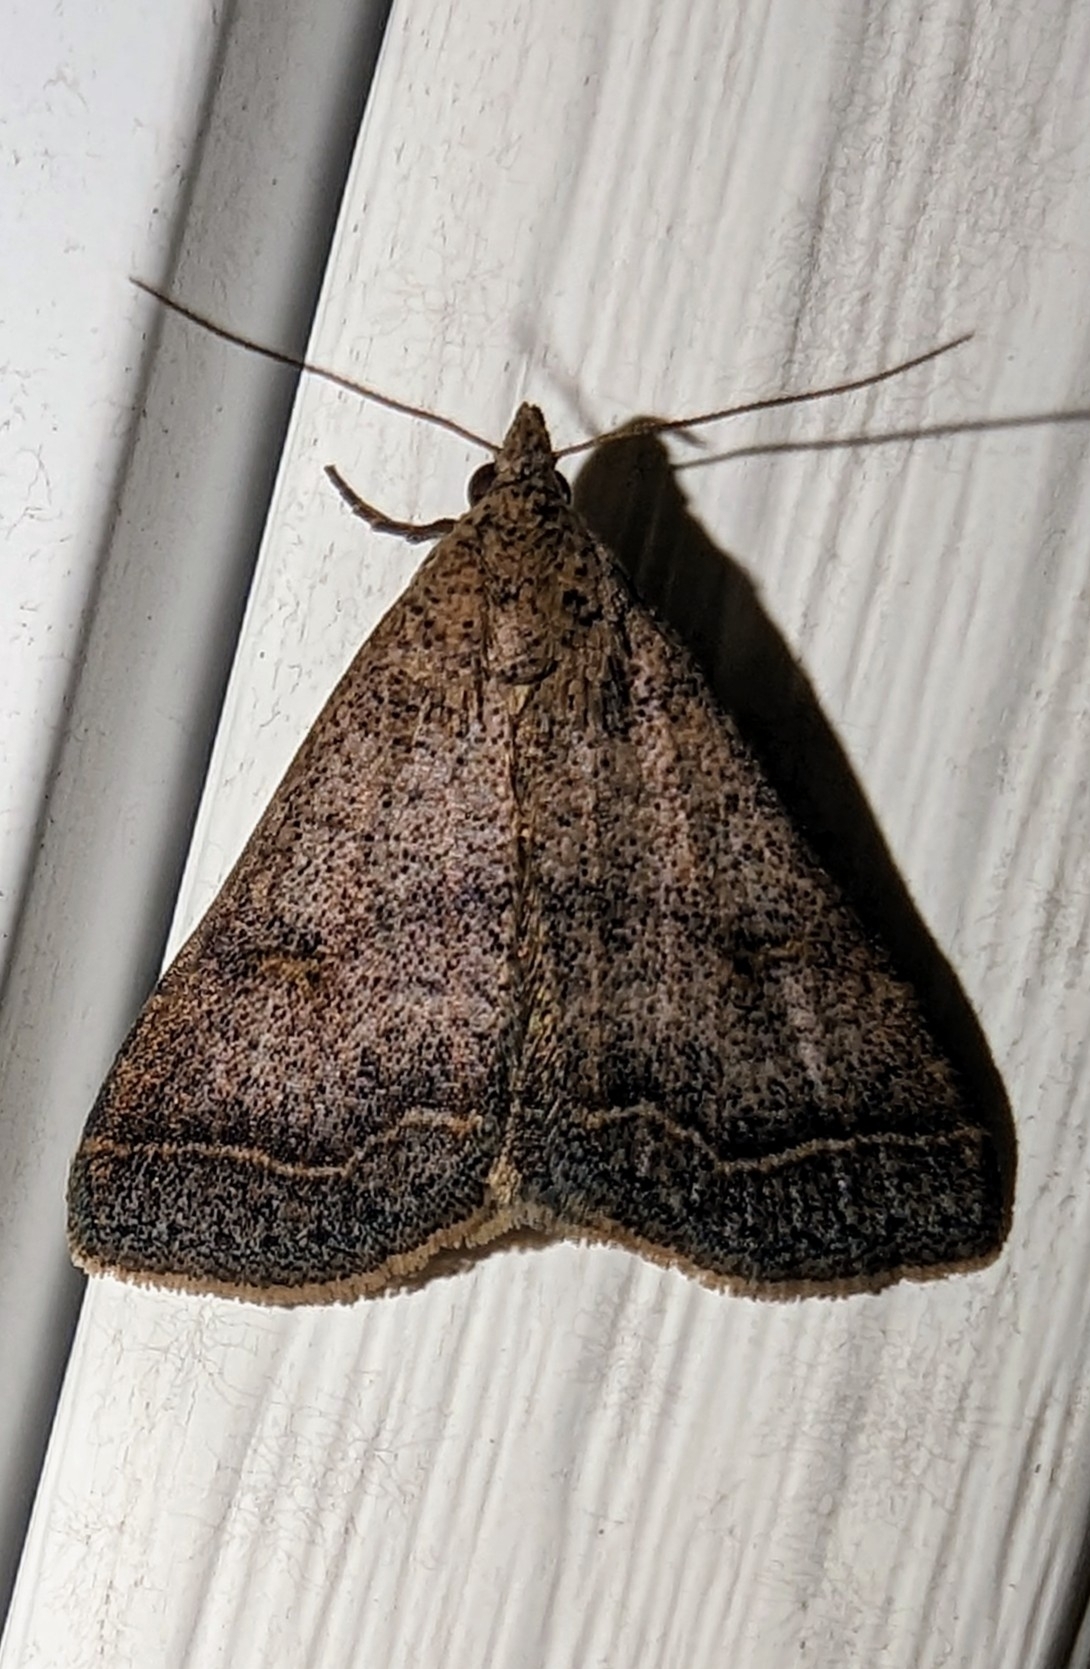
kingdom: Animalia
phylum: Arthropoda
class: Insecta
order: Lepidoptera
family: Erebidae
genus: Bleptina
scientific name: Bleptina caradrinalis
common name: Bent-winged owlet
